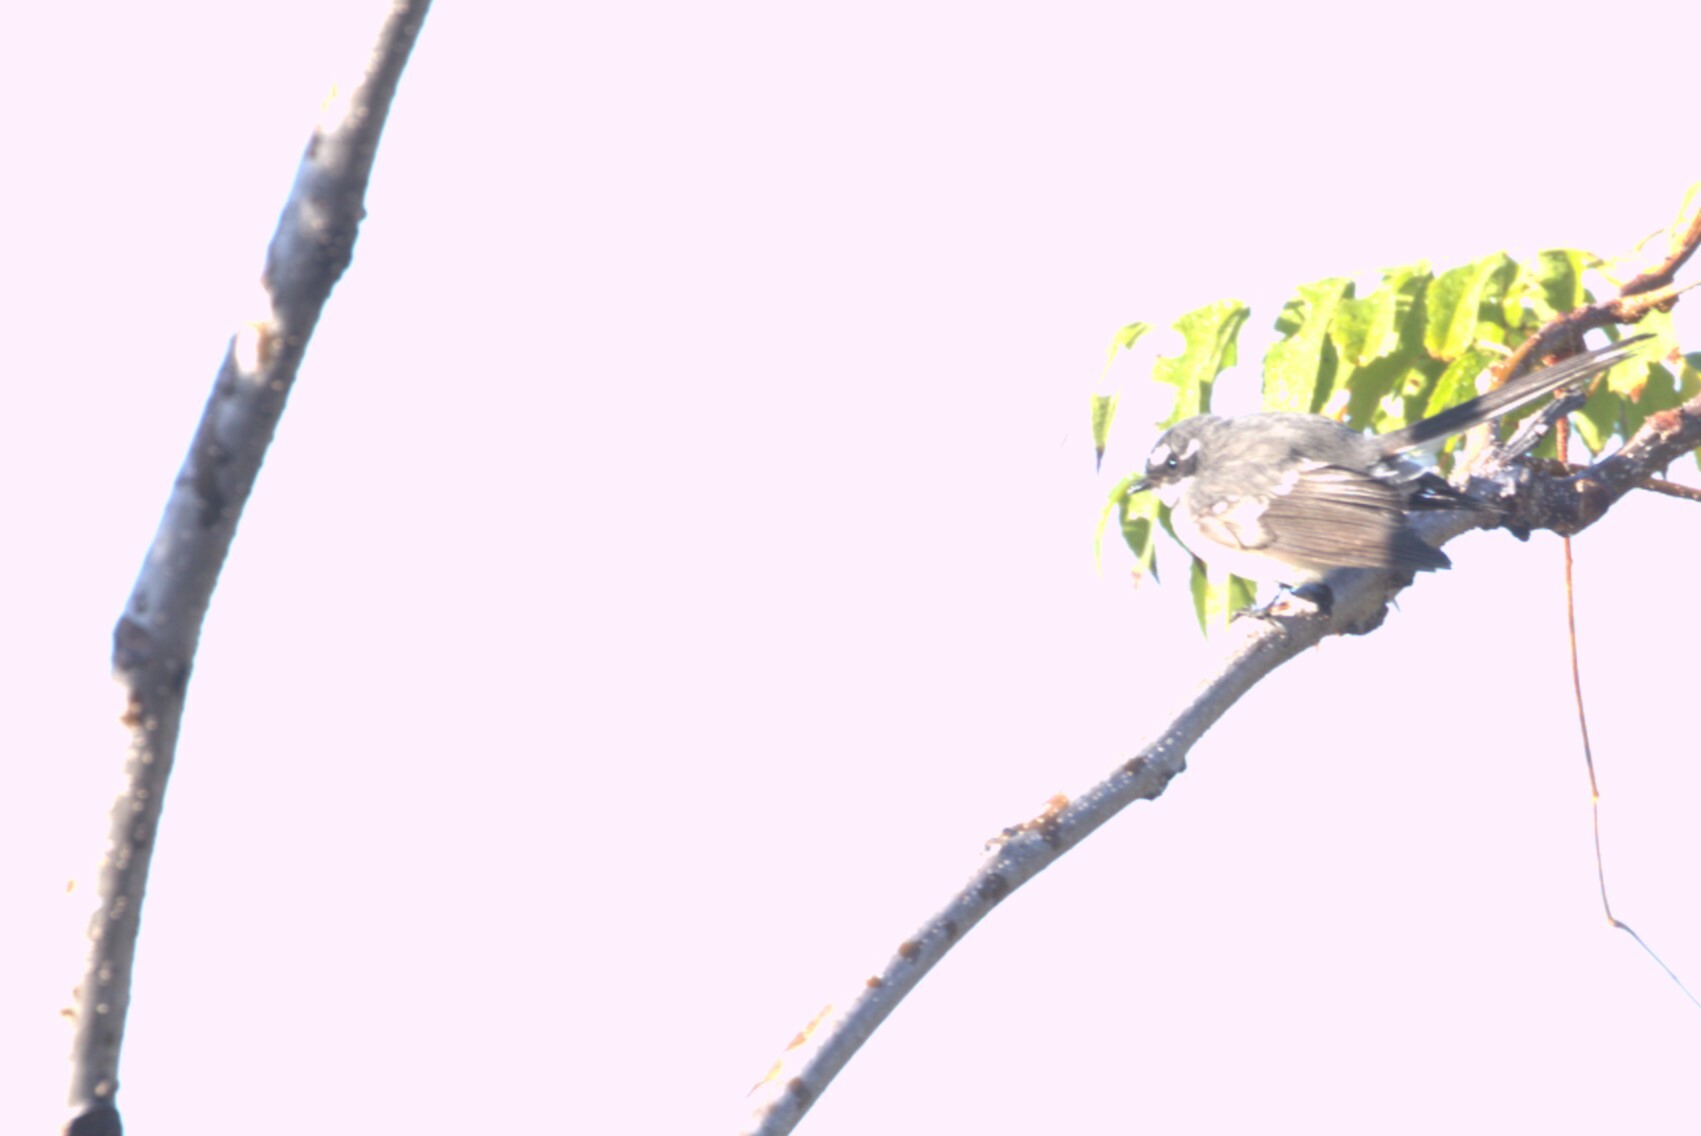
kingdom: Animalia
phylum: Chordata
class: Aves
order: Passeriformes
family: Rhipiduridae
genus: Rhipidura
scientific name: Rhipidura albiscapa
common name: Grey fantail
